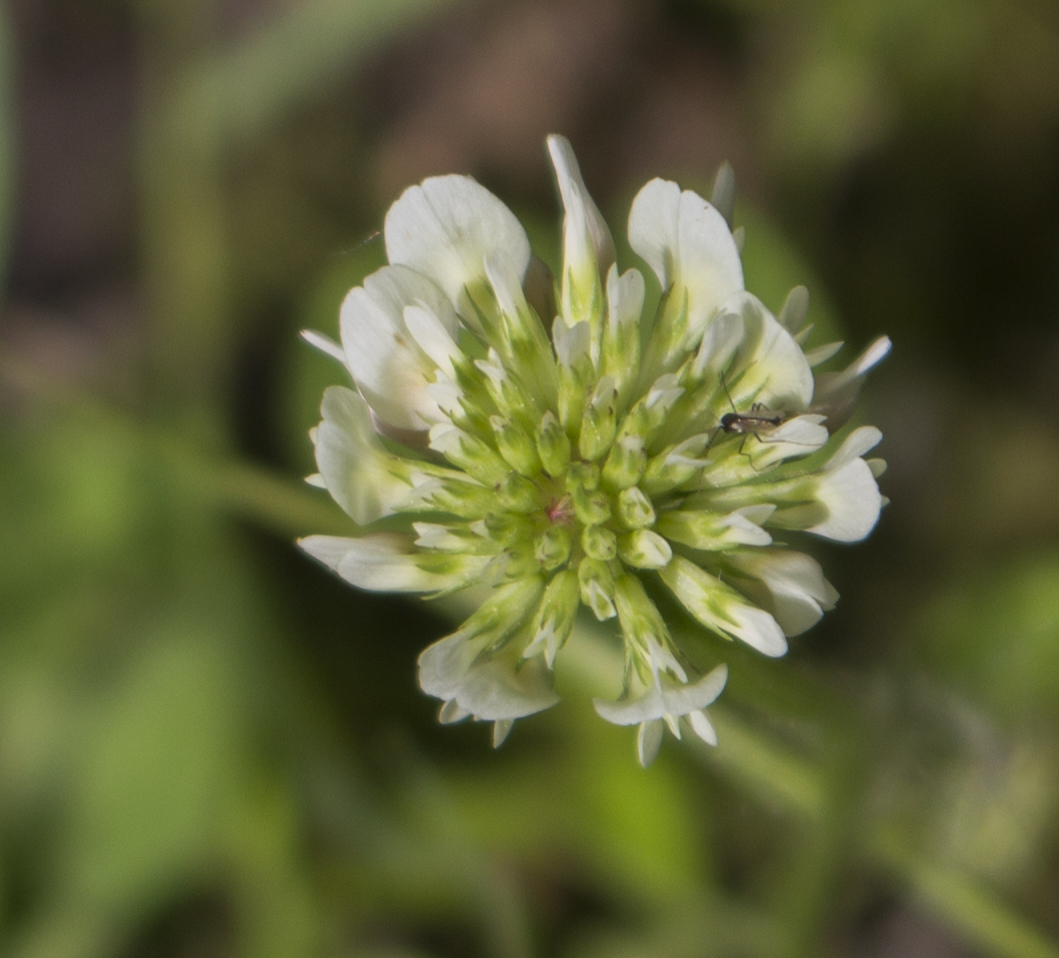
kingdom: Plantae
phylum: Tracheophyta
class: Magnoliopsida
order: Fabales
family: Fabaceae
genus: Trifolium
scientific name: Trifolium repens
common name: White clover
